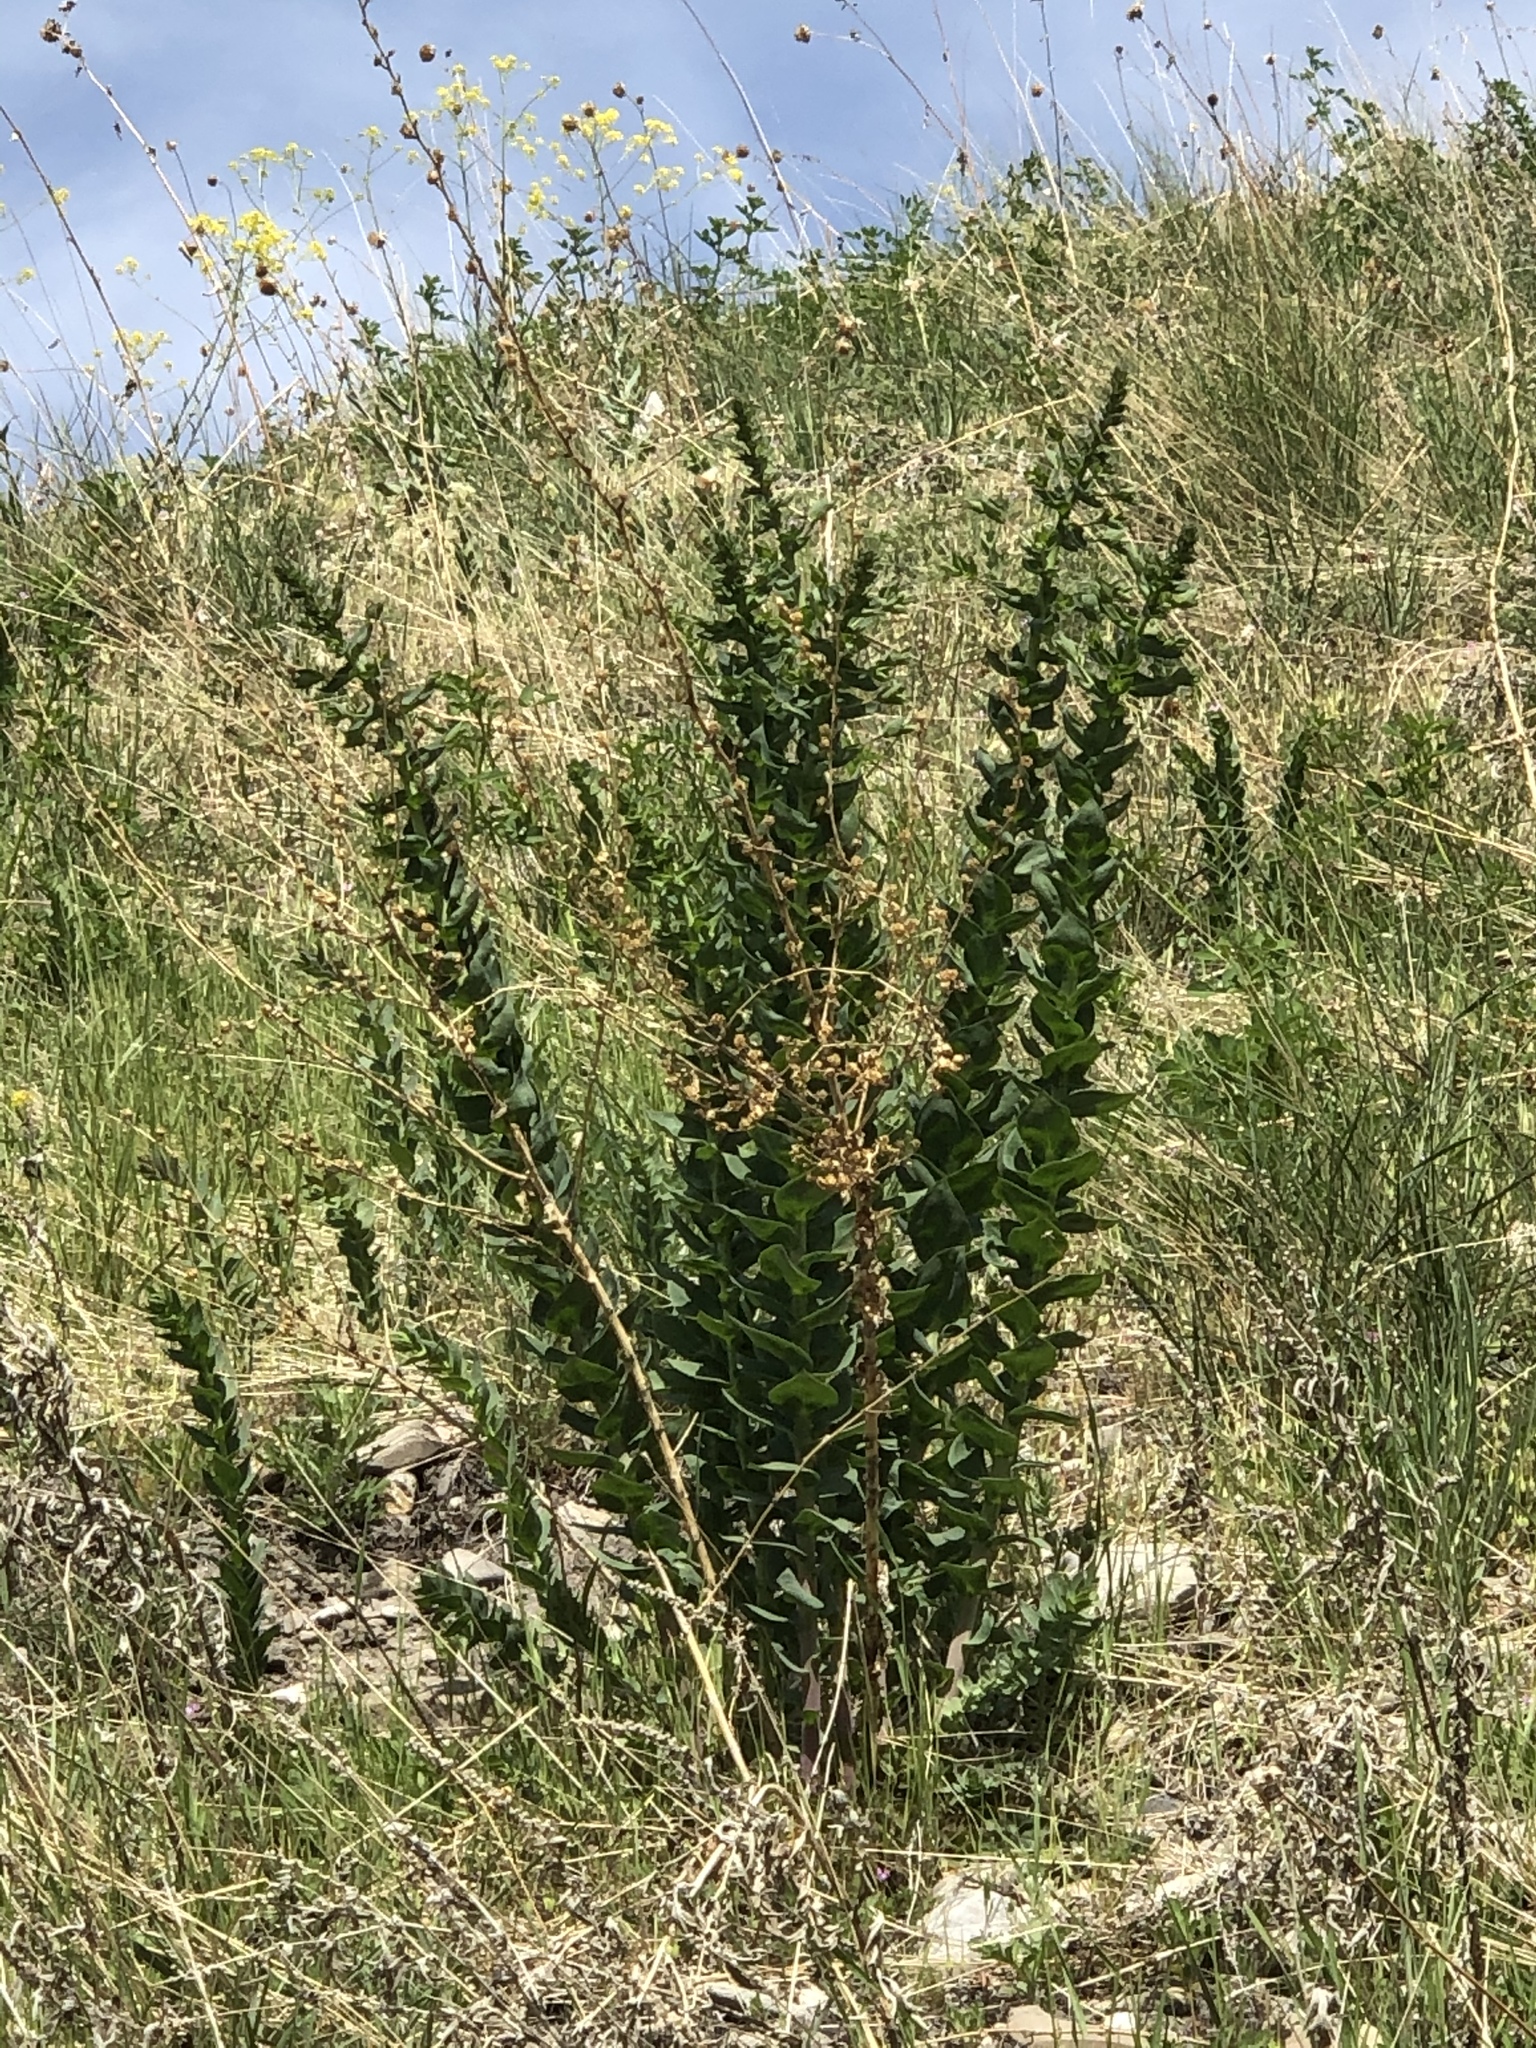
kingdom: Plantae
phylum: Tracheophyta
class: Magnoliopsida
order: Lamiales
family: Plantaginaceae
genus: Linaria
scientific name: Linaria dalmatica
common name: Dalmatian toadflax
